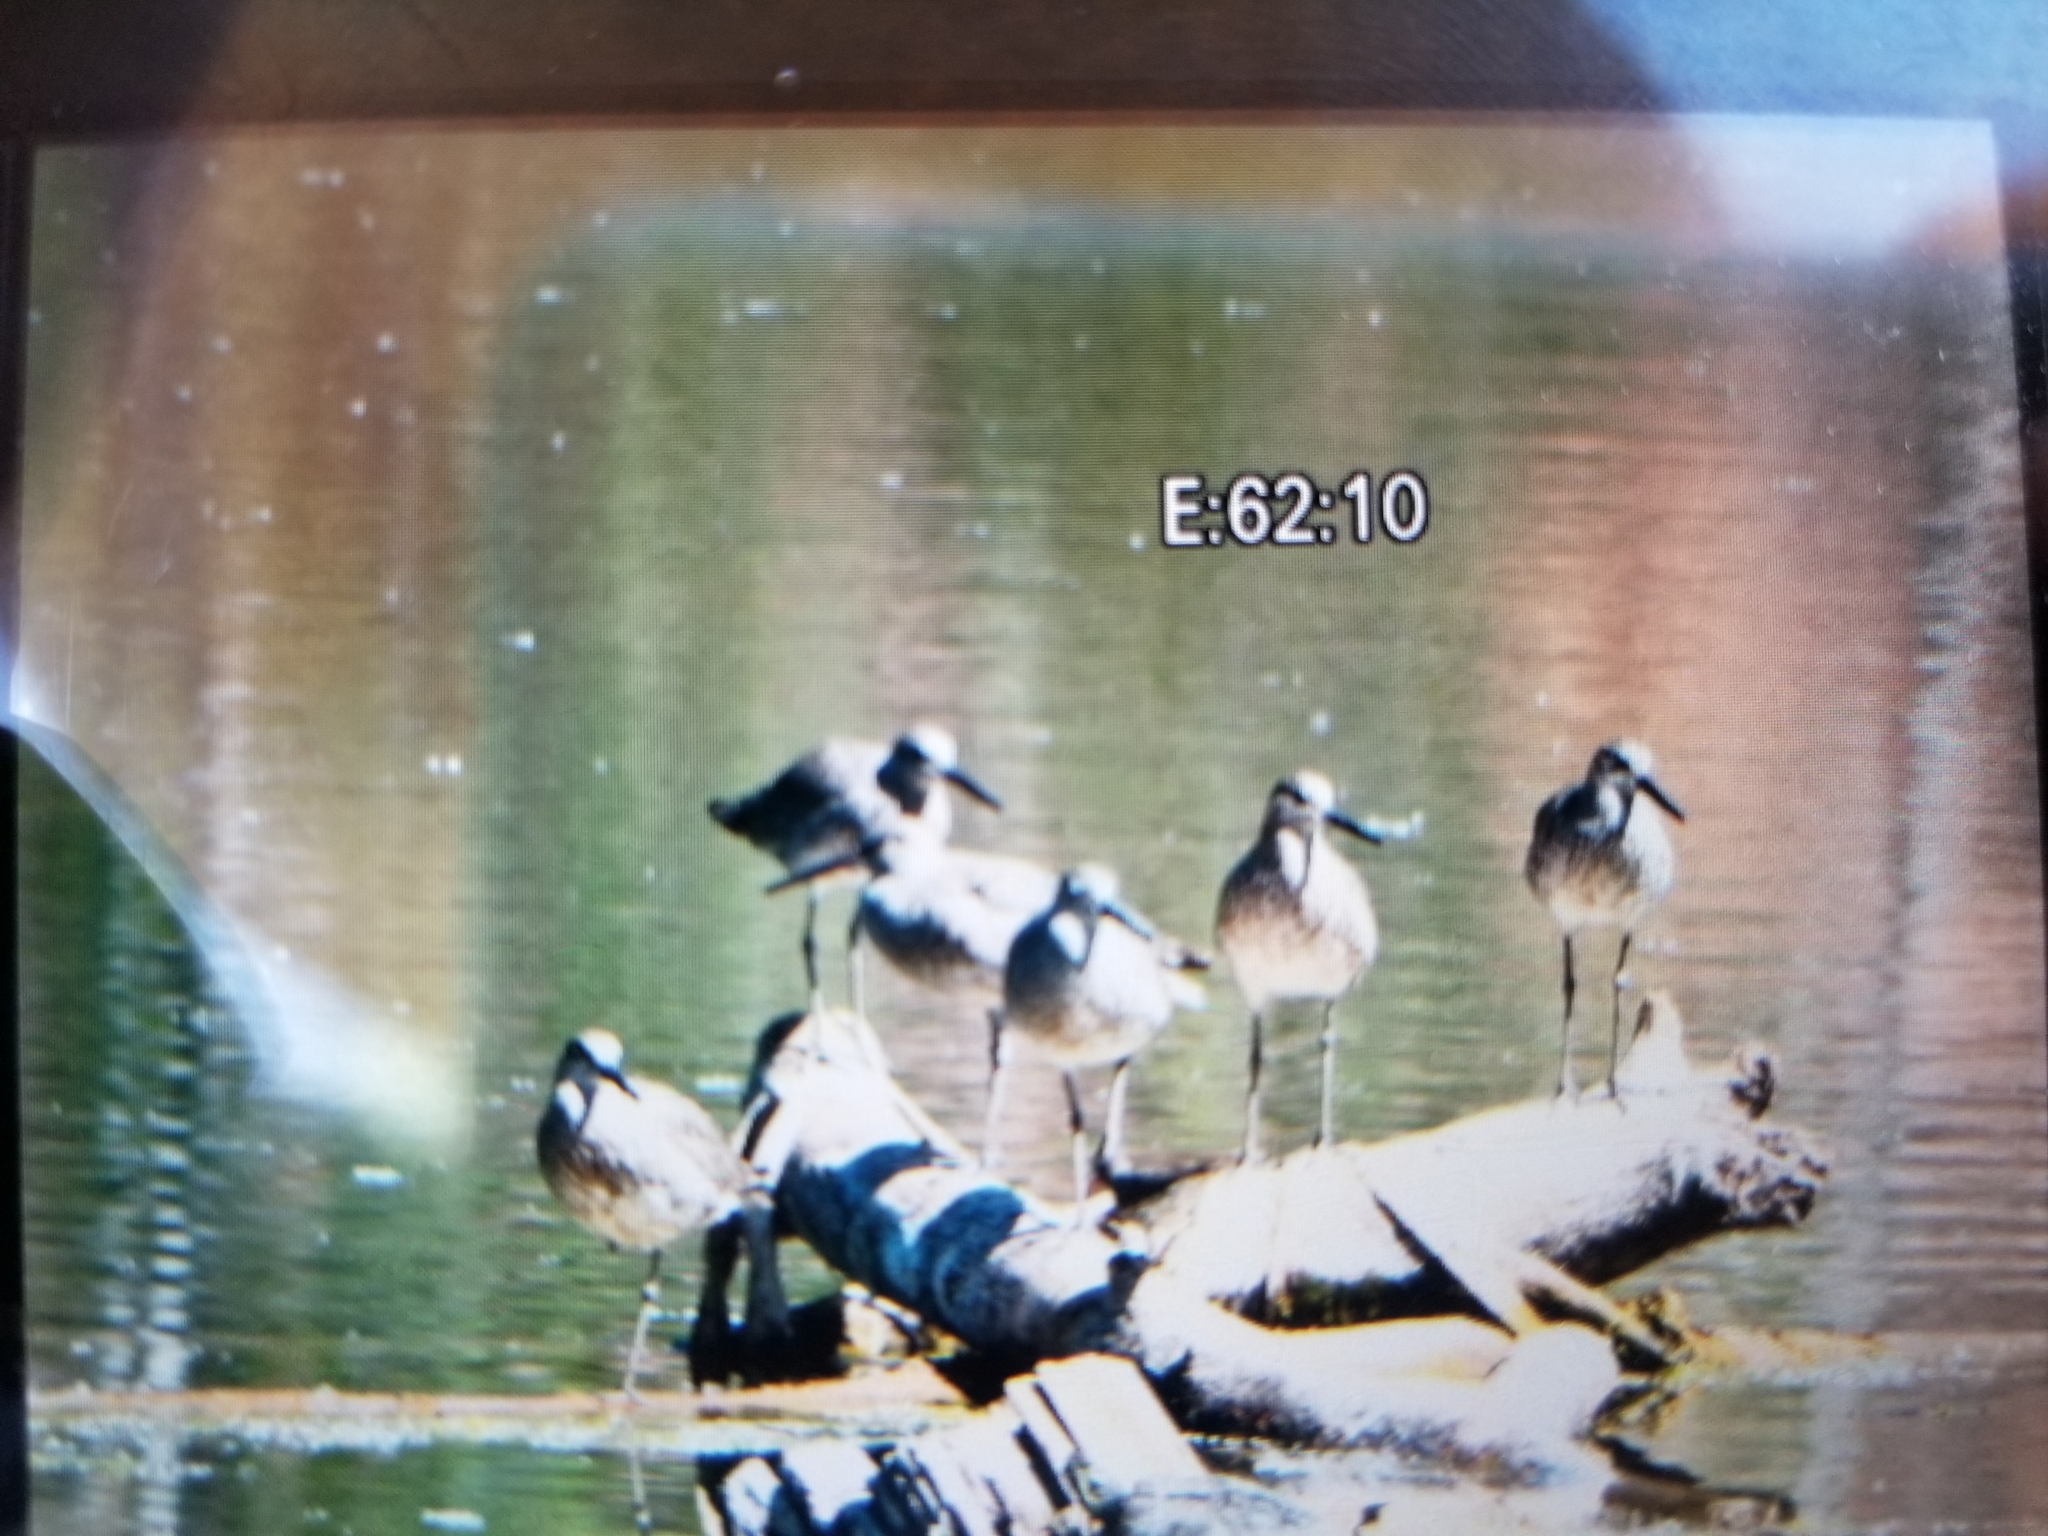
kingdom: Animalia
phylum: Chordata
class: Aves
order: Charadriiformes
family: Scolopacidae
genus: Tringa
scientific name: Tringa semipalmata
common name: Willet
